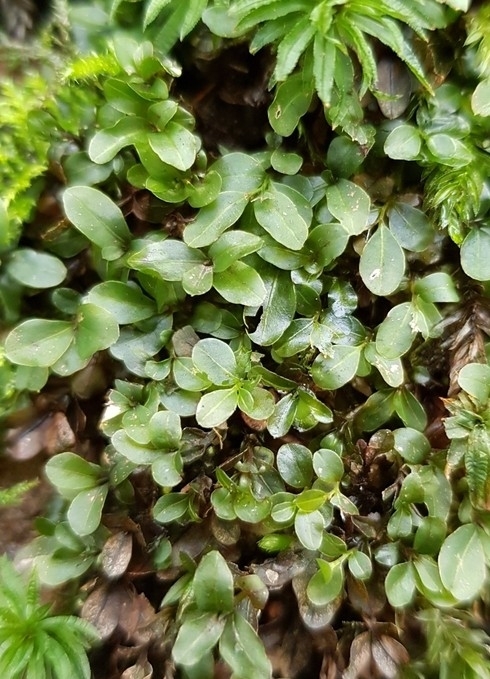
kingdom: Plantae
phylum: Bryophyta
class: Bryopsida
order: Bryales
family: Mniaceae
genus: Rhizomnium
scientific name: Rhizomnium punctatum
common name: Dotted leafy moss
